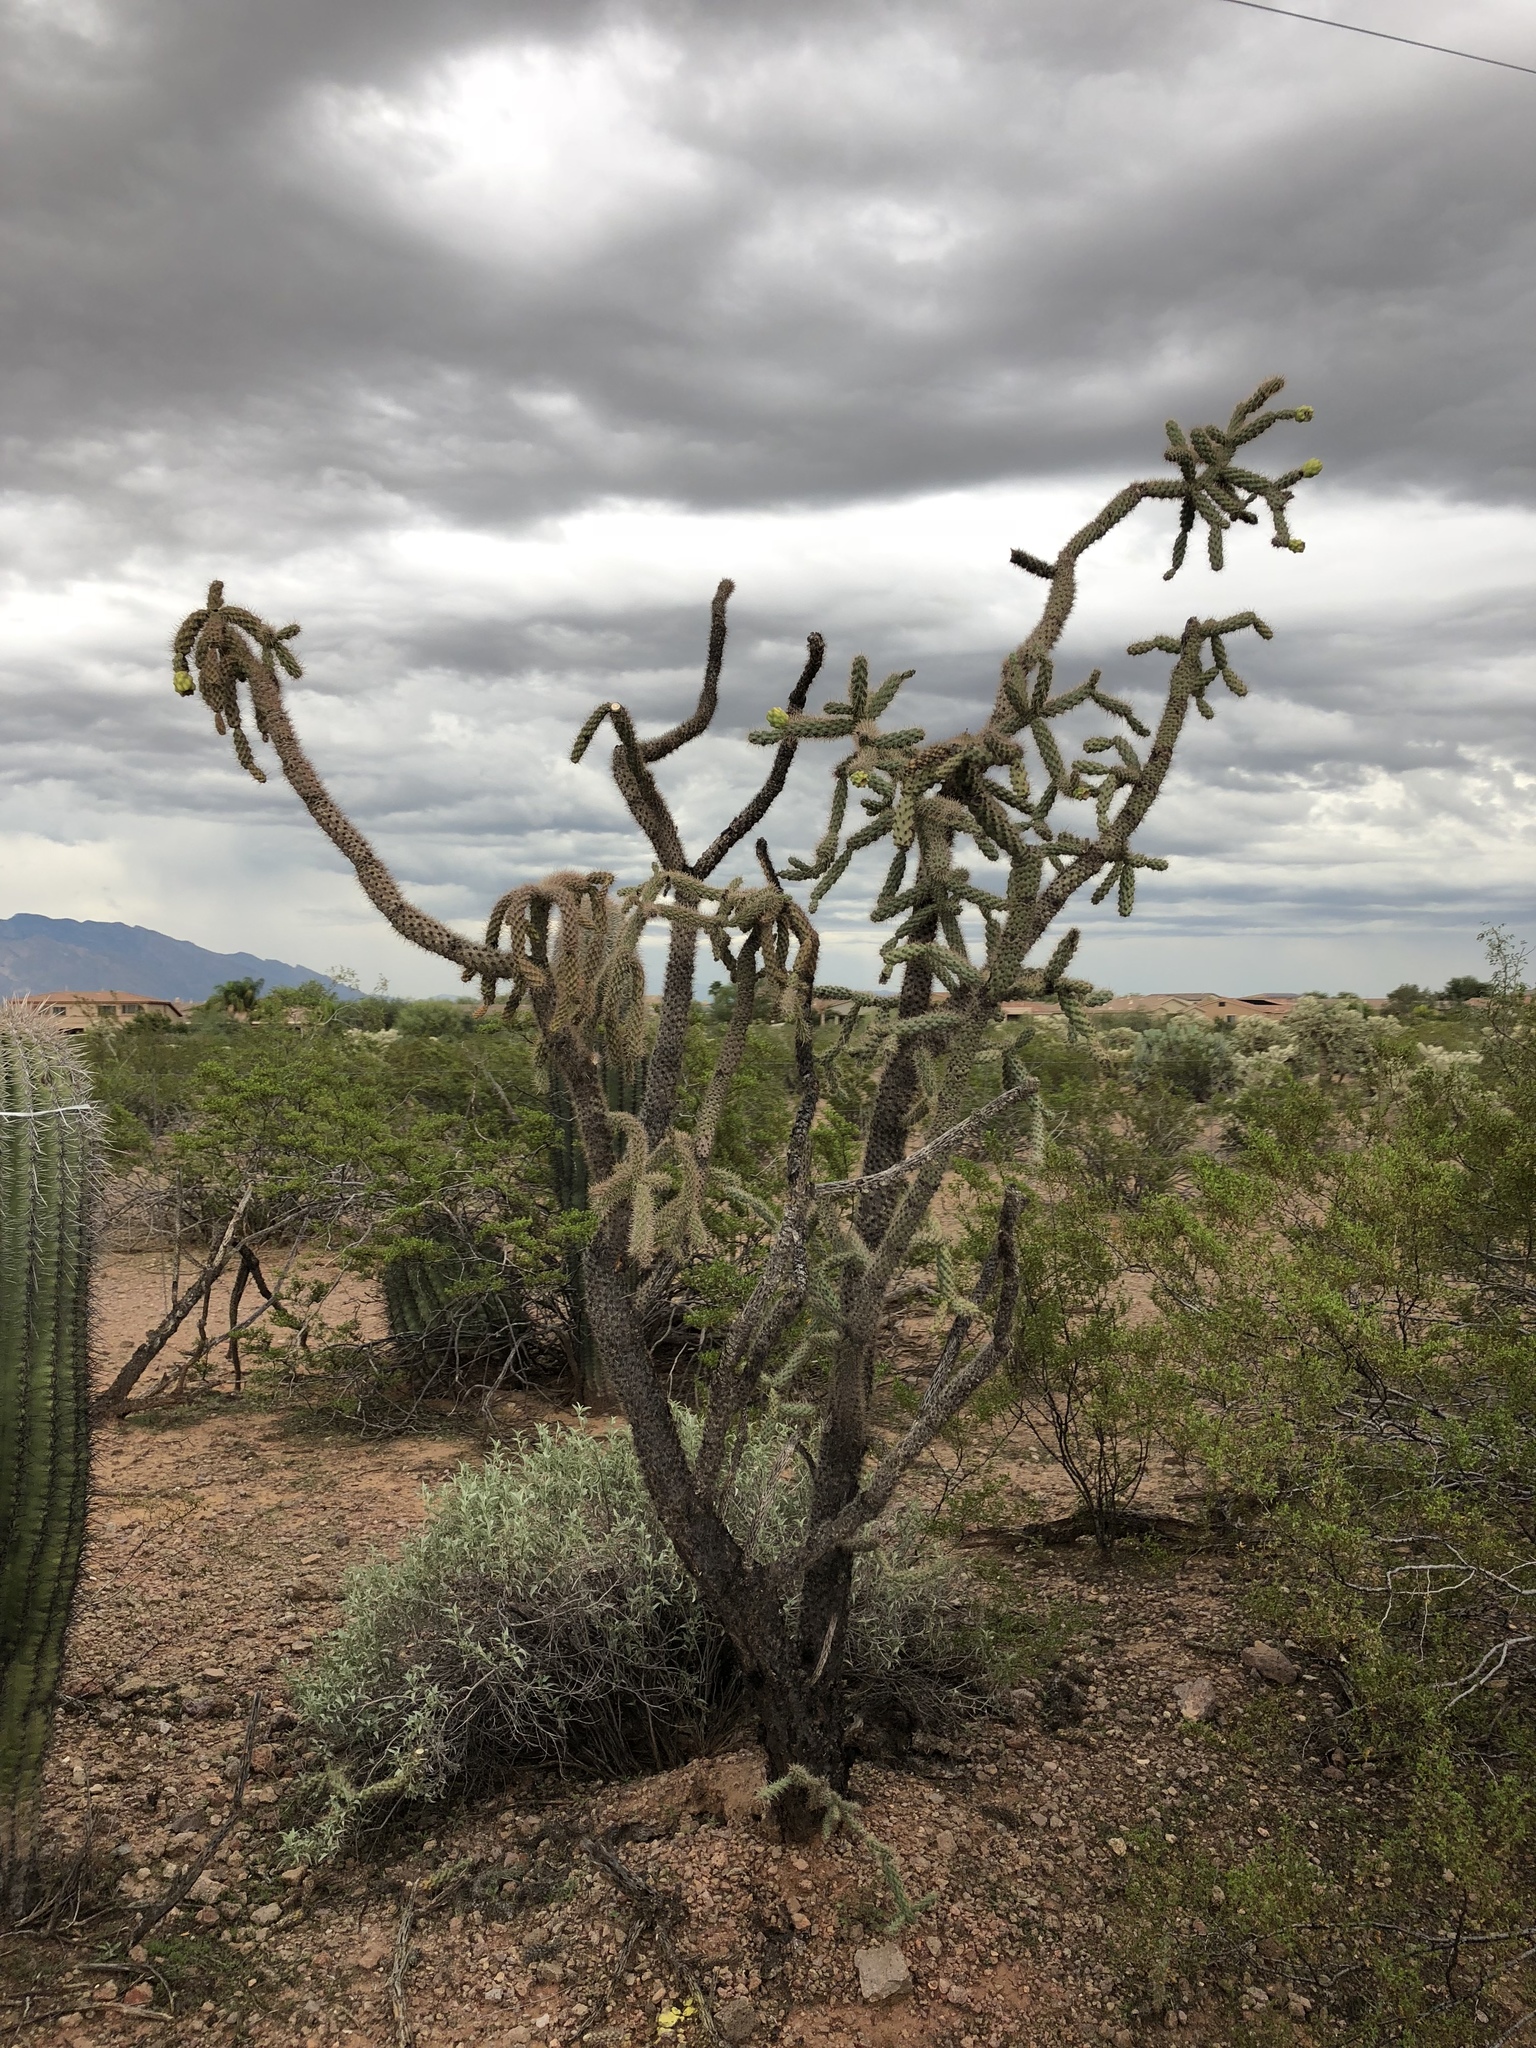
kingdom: Plantae
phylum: Tracheophyta
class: Magnoliopsida
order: Caryophyllales
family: Cactaceae
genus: Cylindropuntia
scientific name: Cylindropuntia imbricata
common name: Candelabrum cactus
